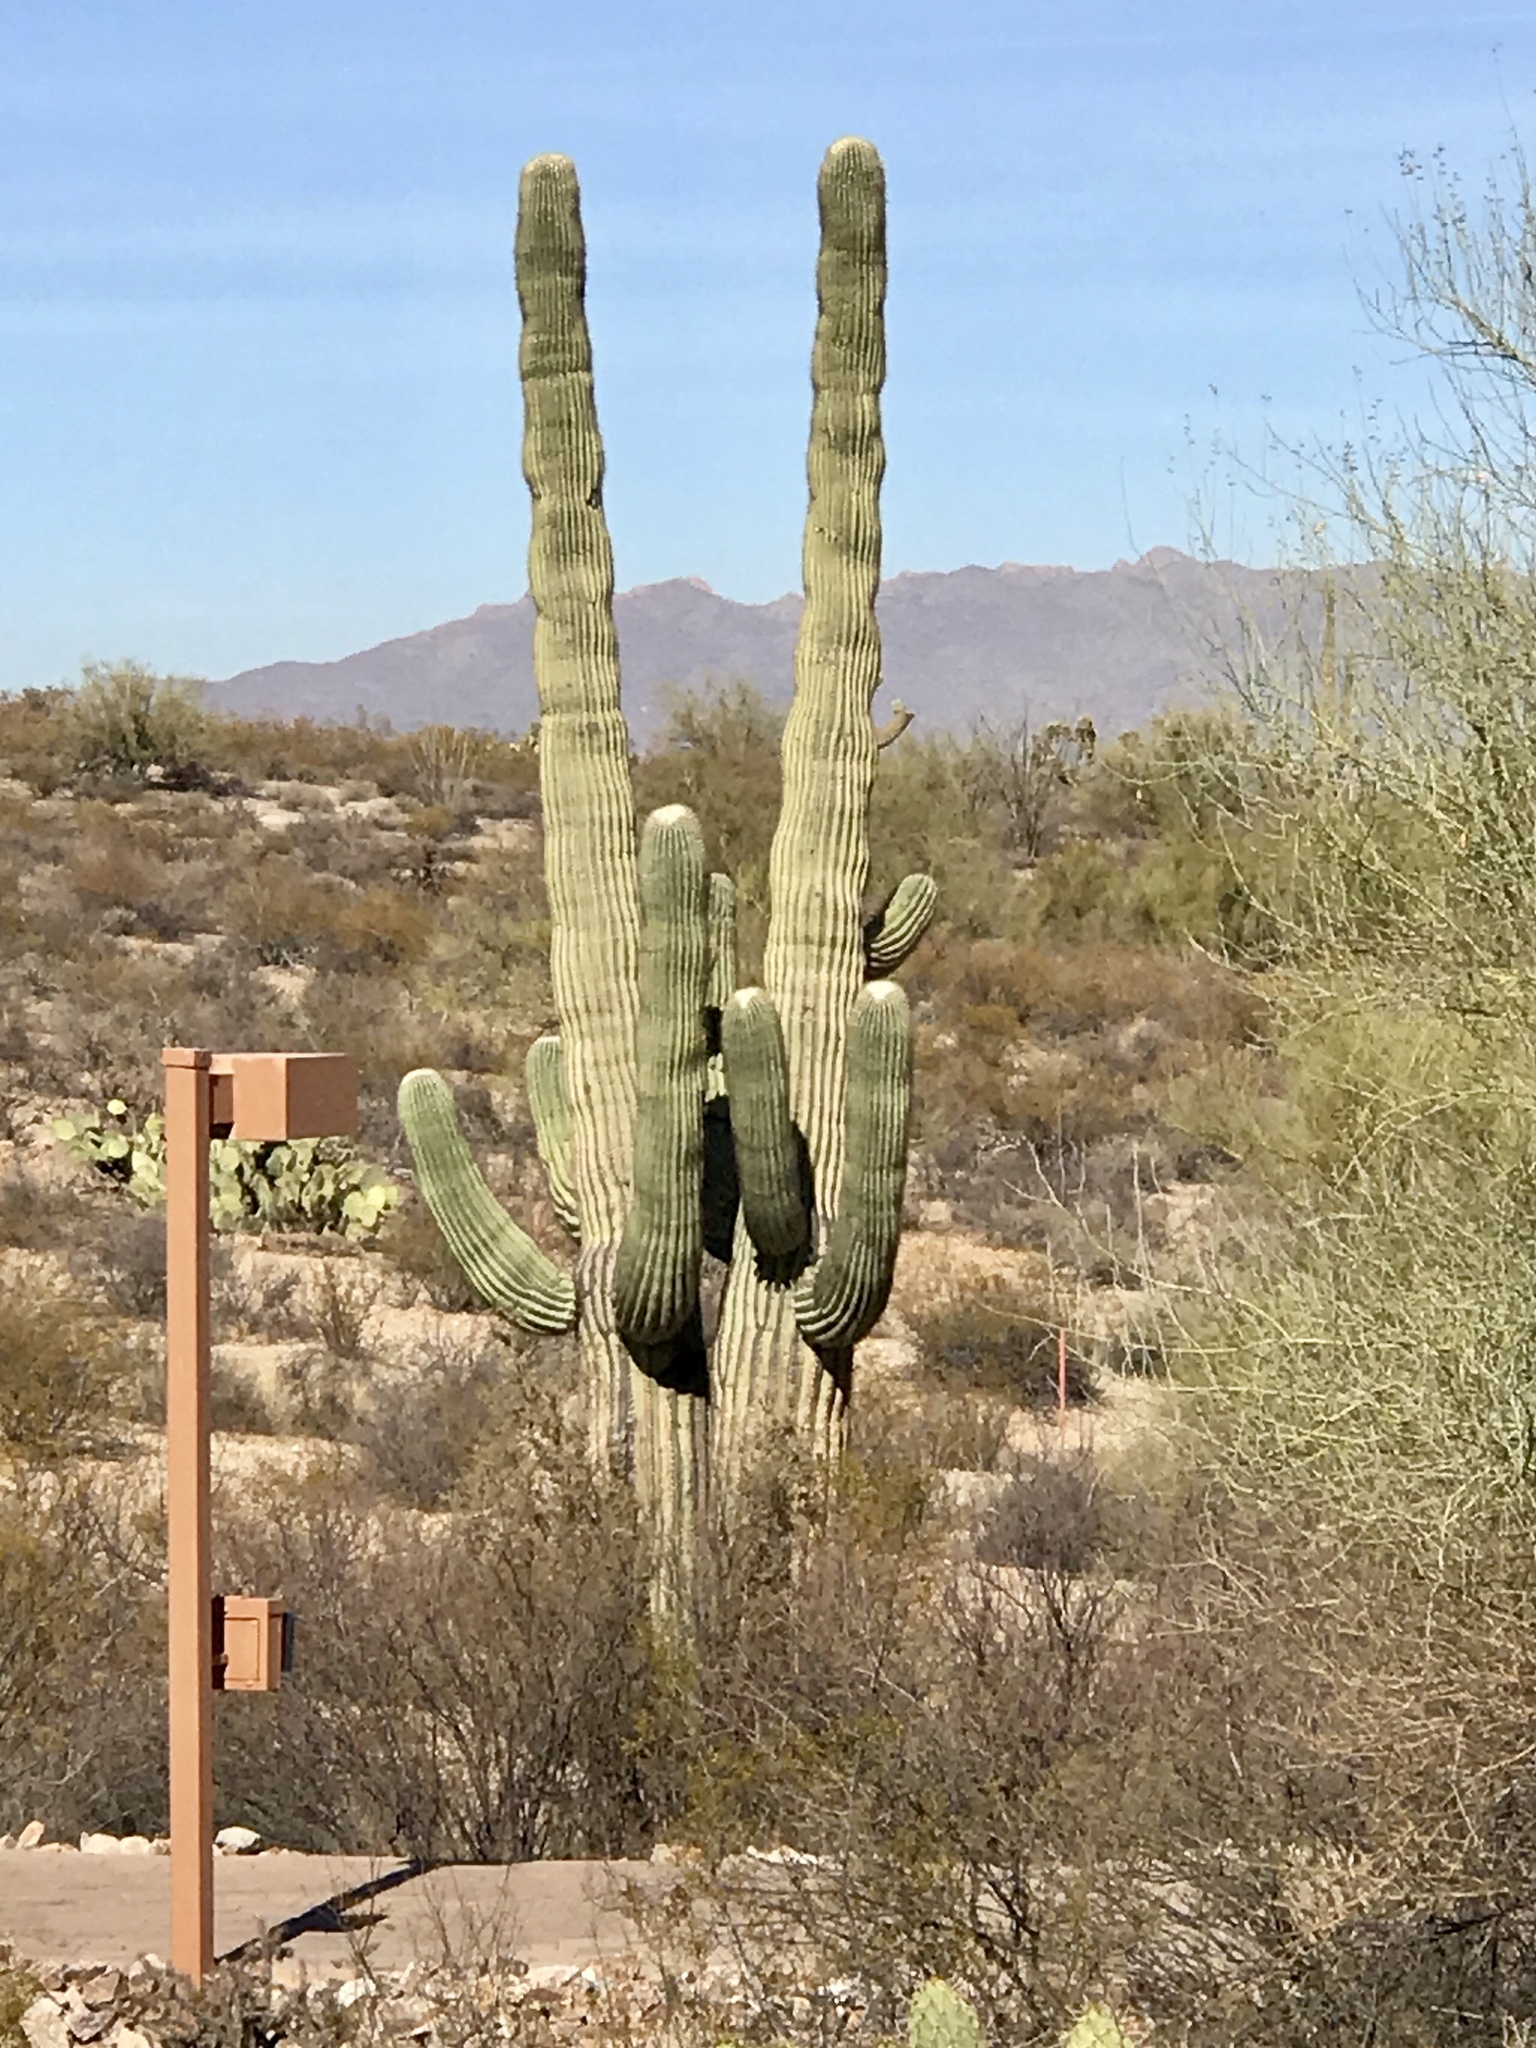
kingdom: Plantae
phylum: Tracheophyta
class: Magnoliopsida
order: Caryophyllales
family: Cactaceae
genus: Carnegiea
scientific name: Carnegiea gigantea
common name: Saguaro
